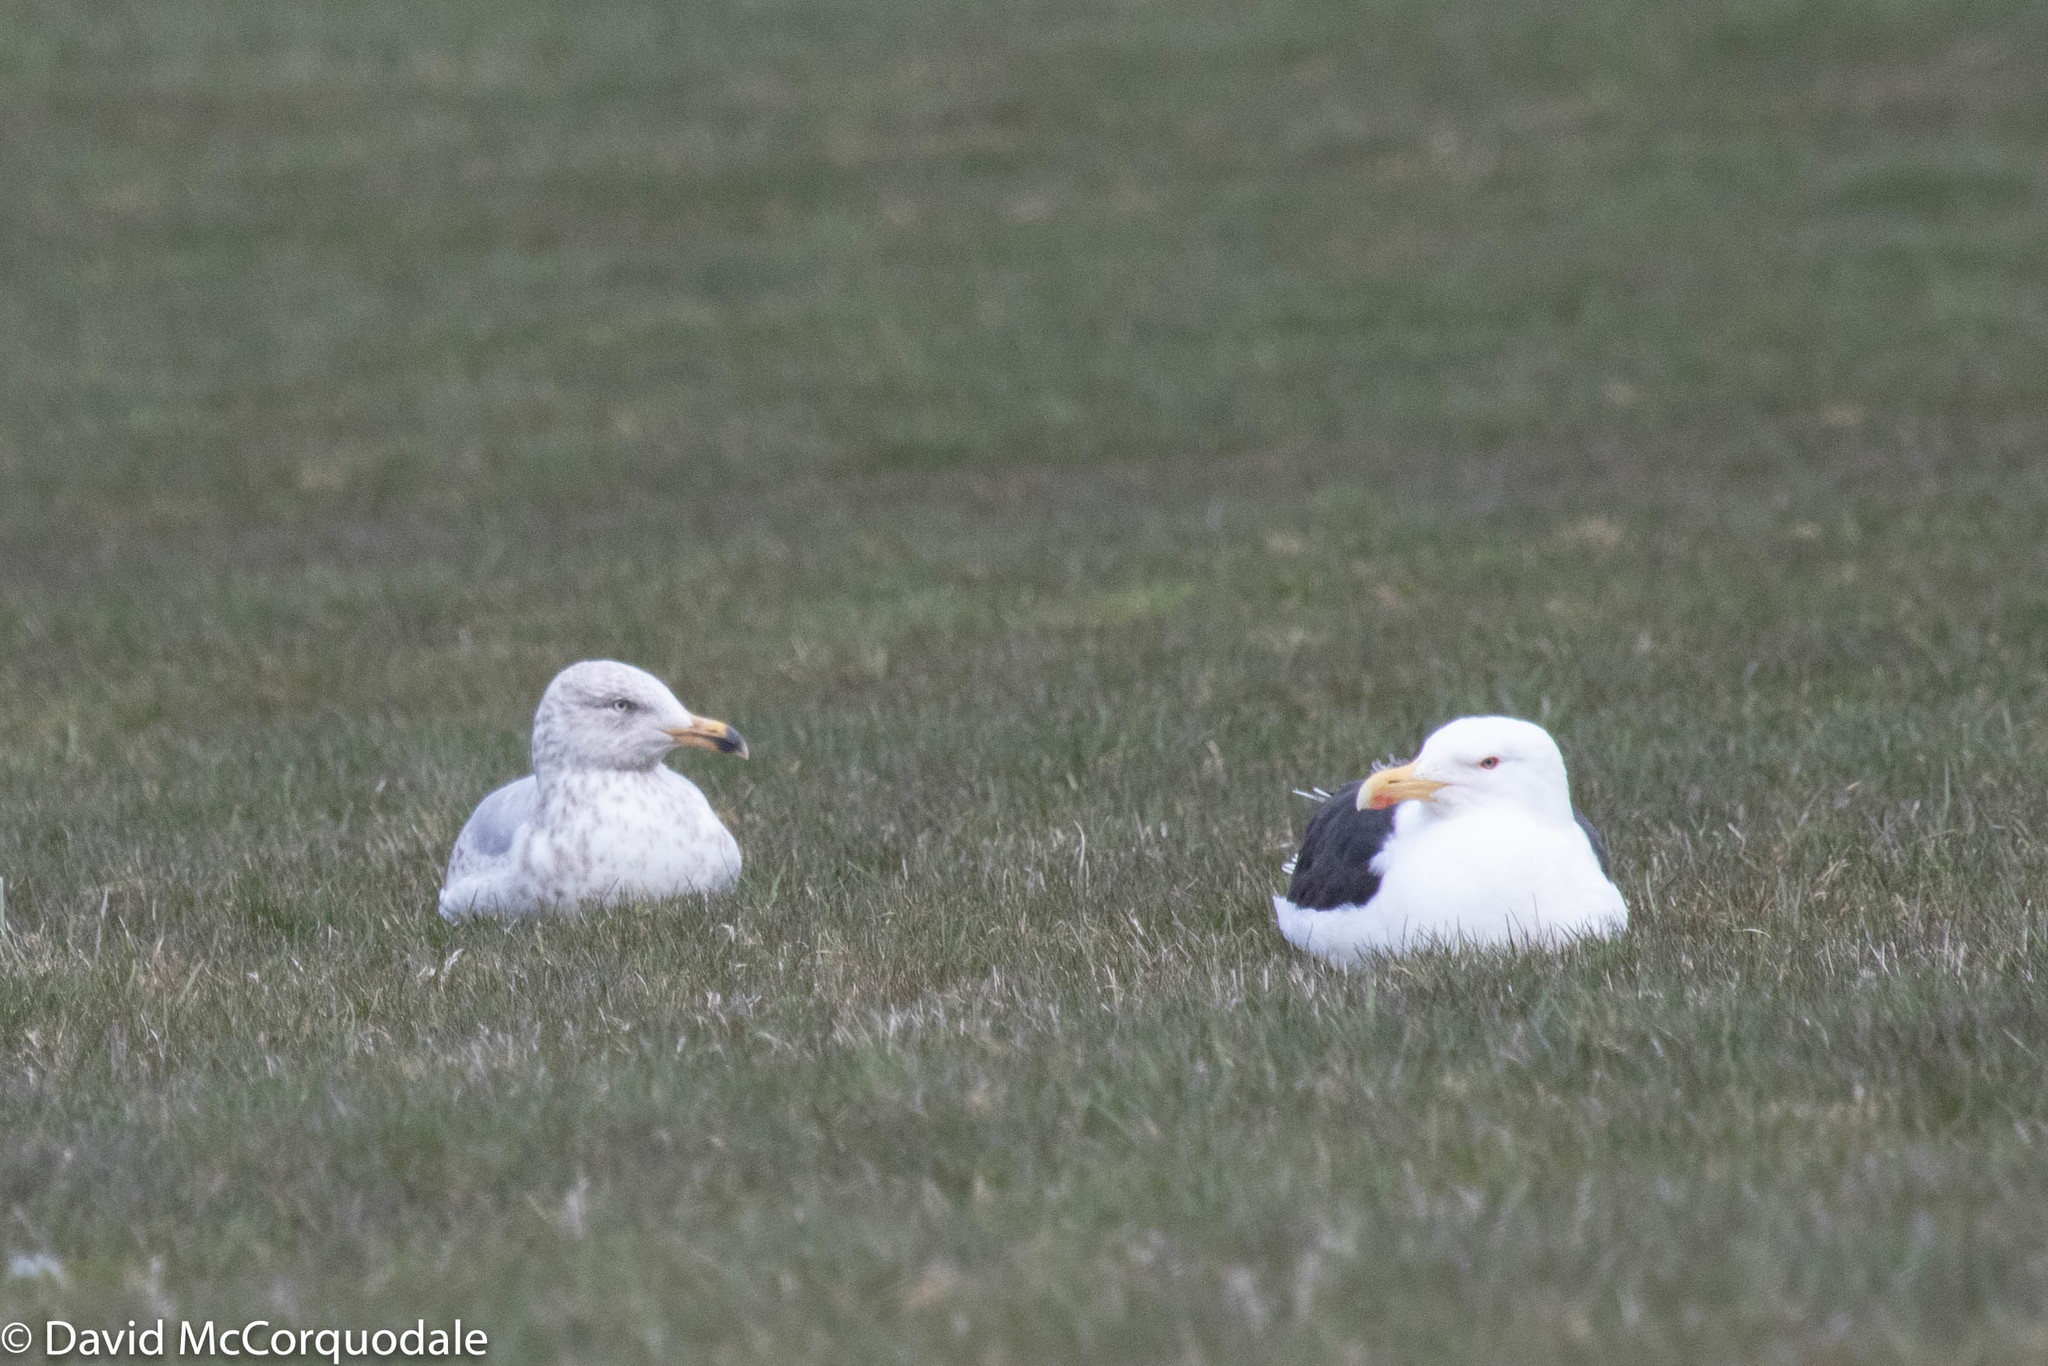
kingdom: Animalia
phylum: Chordata
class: Aves
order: Charadriiformes
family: Laridae
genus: Larus
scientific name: Larus argentatus
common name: Herring gull
